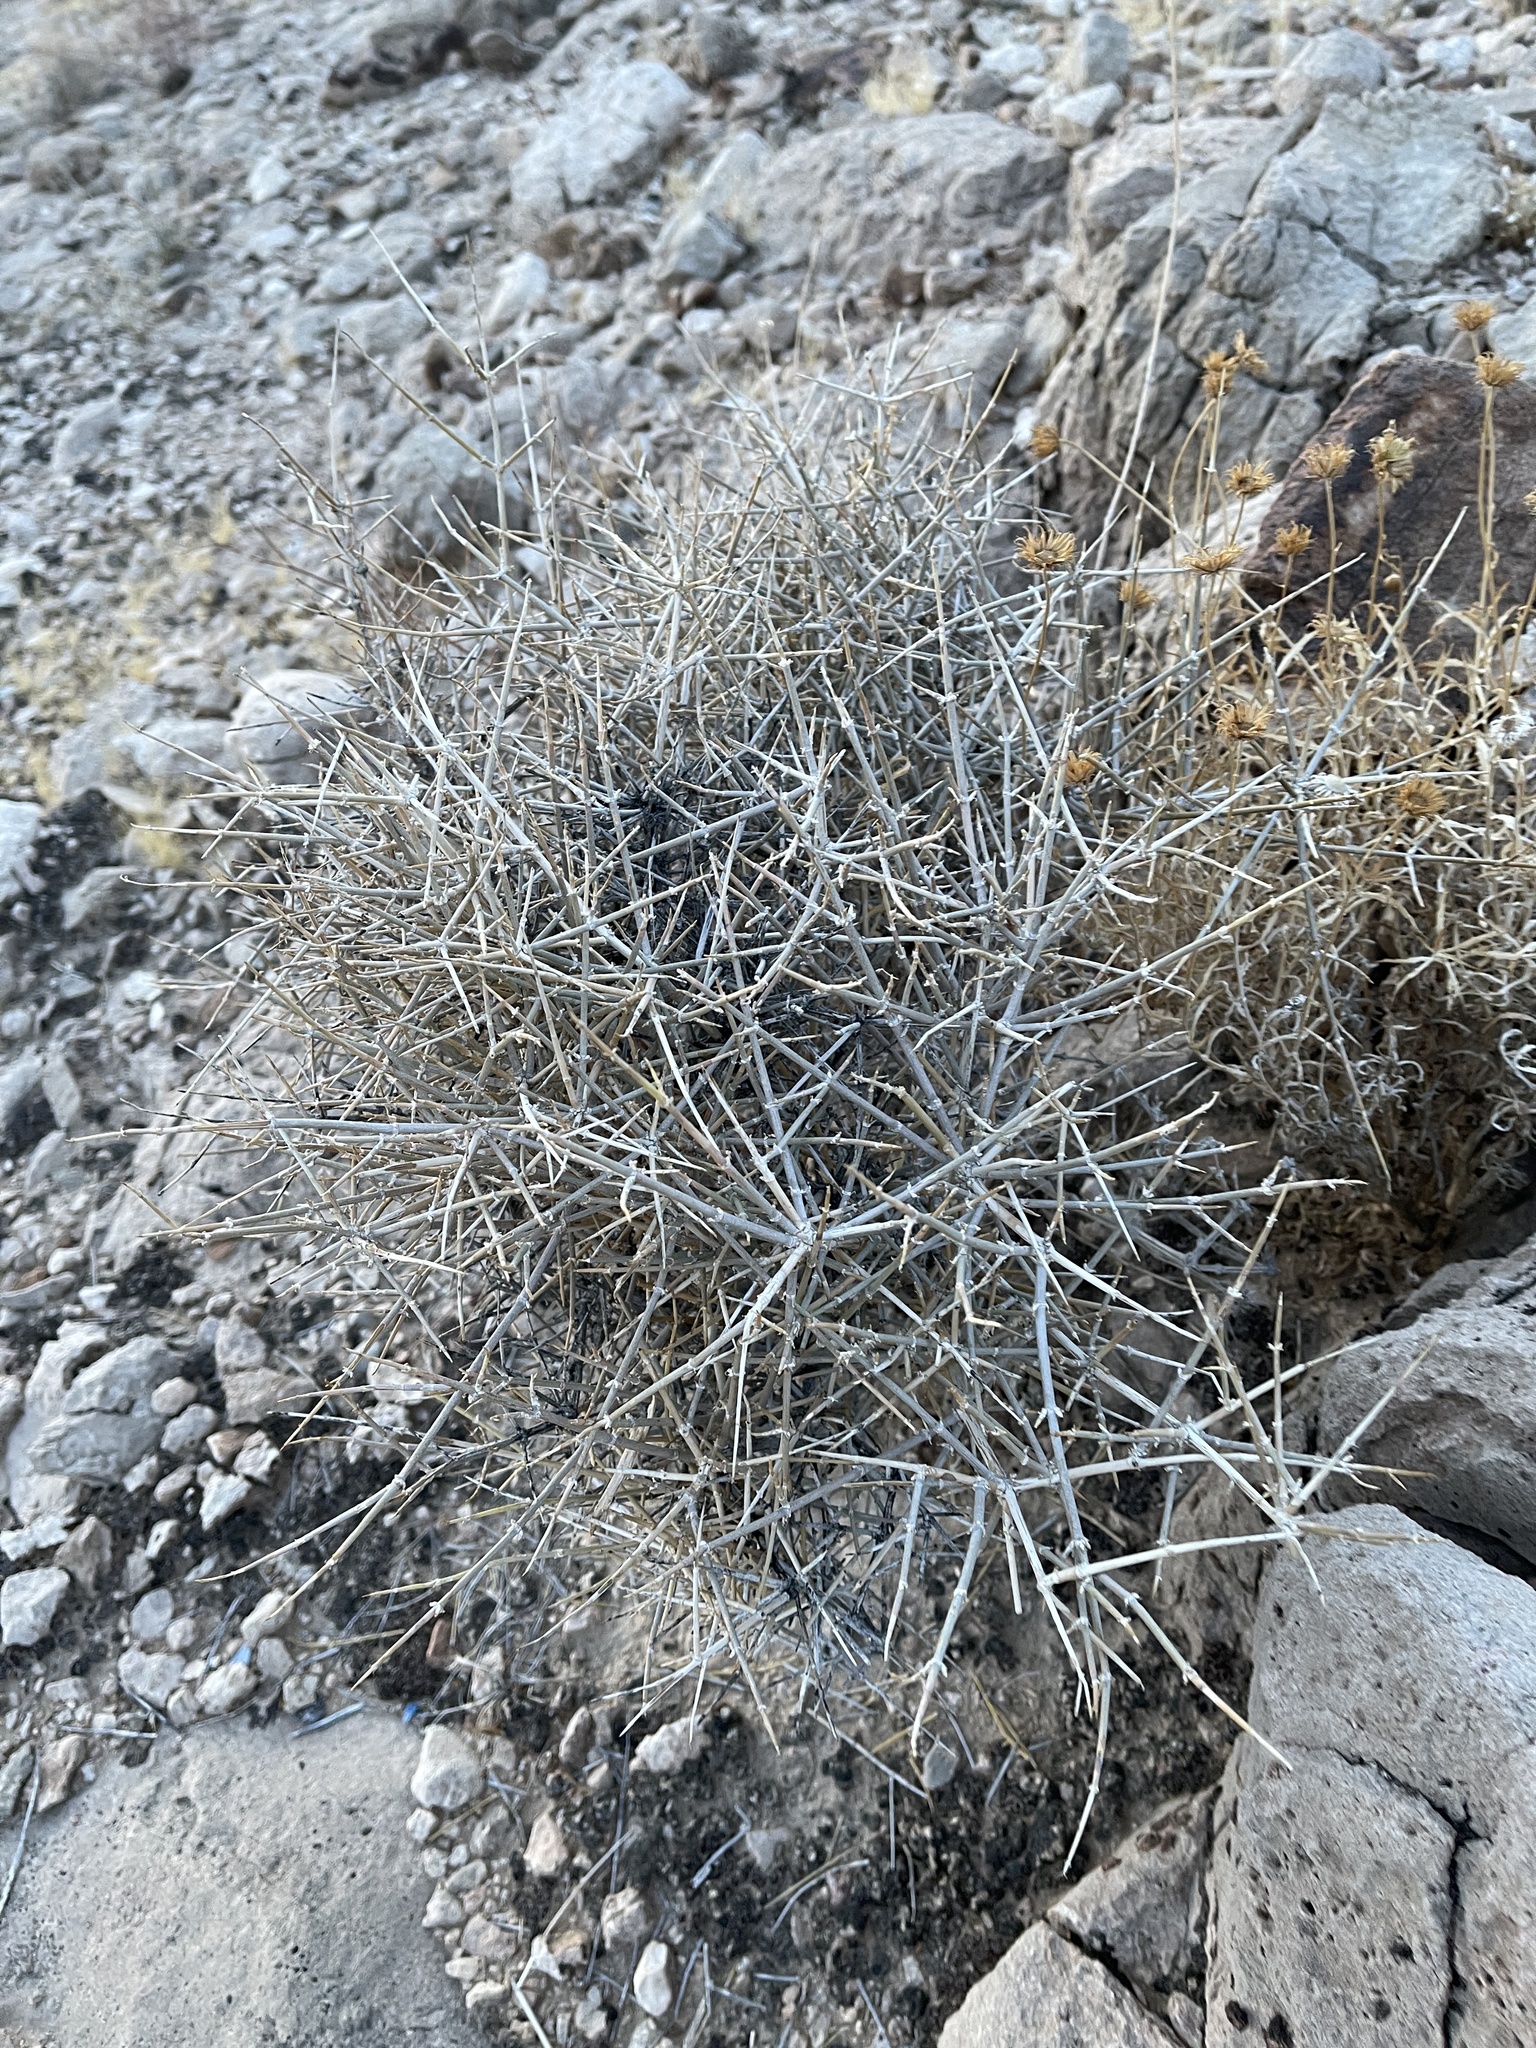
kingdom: Plantae
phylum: Tracheophyta
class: Gnetopsida
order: Ephedrales
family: Ephedraceae
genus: Ephedra
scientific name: Ephedra nevadensis
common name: Gray ephedra
